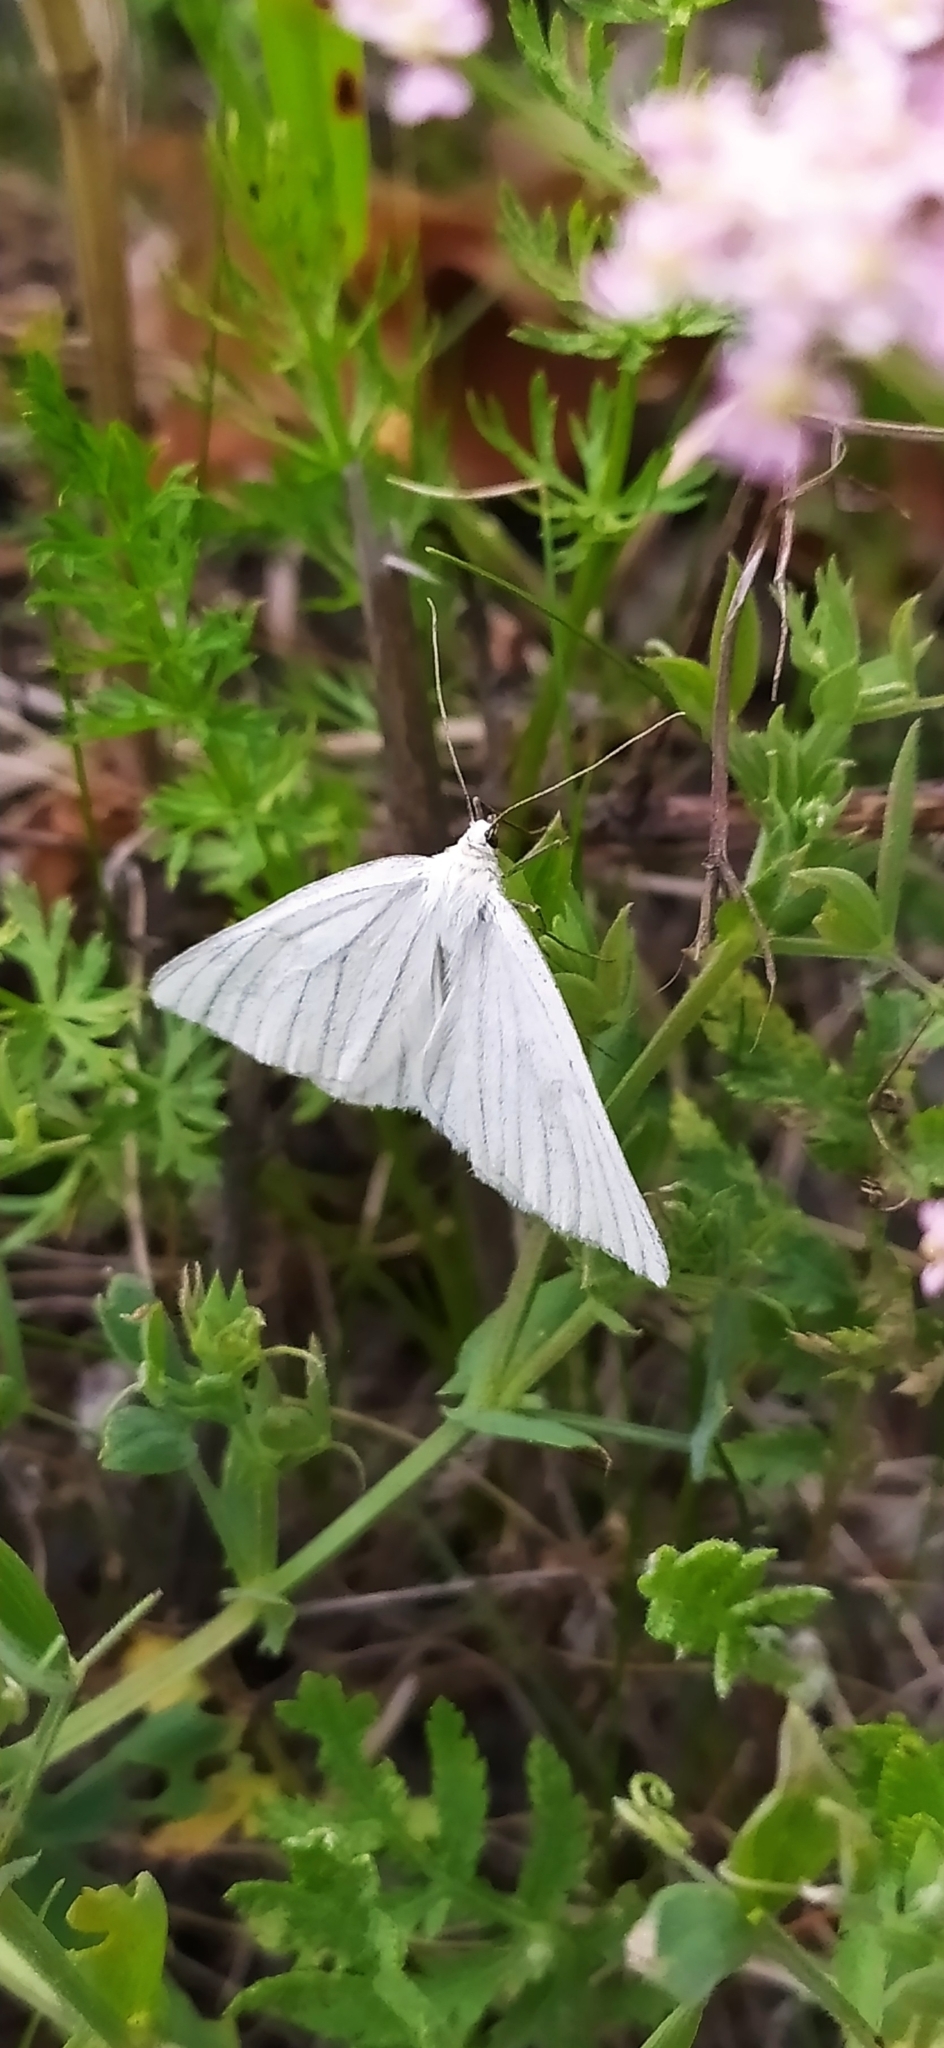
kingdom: Animalia
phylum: Arthropoda
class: Insecta
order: Lepidoptera
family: Geometridae
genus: Siona
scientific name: Siona lineata
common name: Black-veined moth
